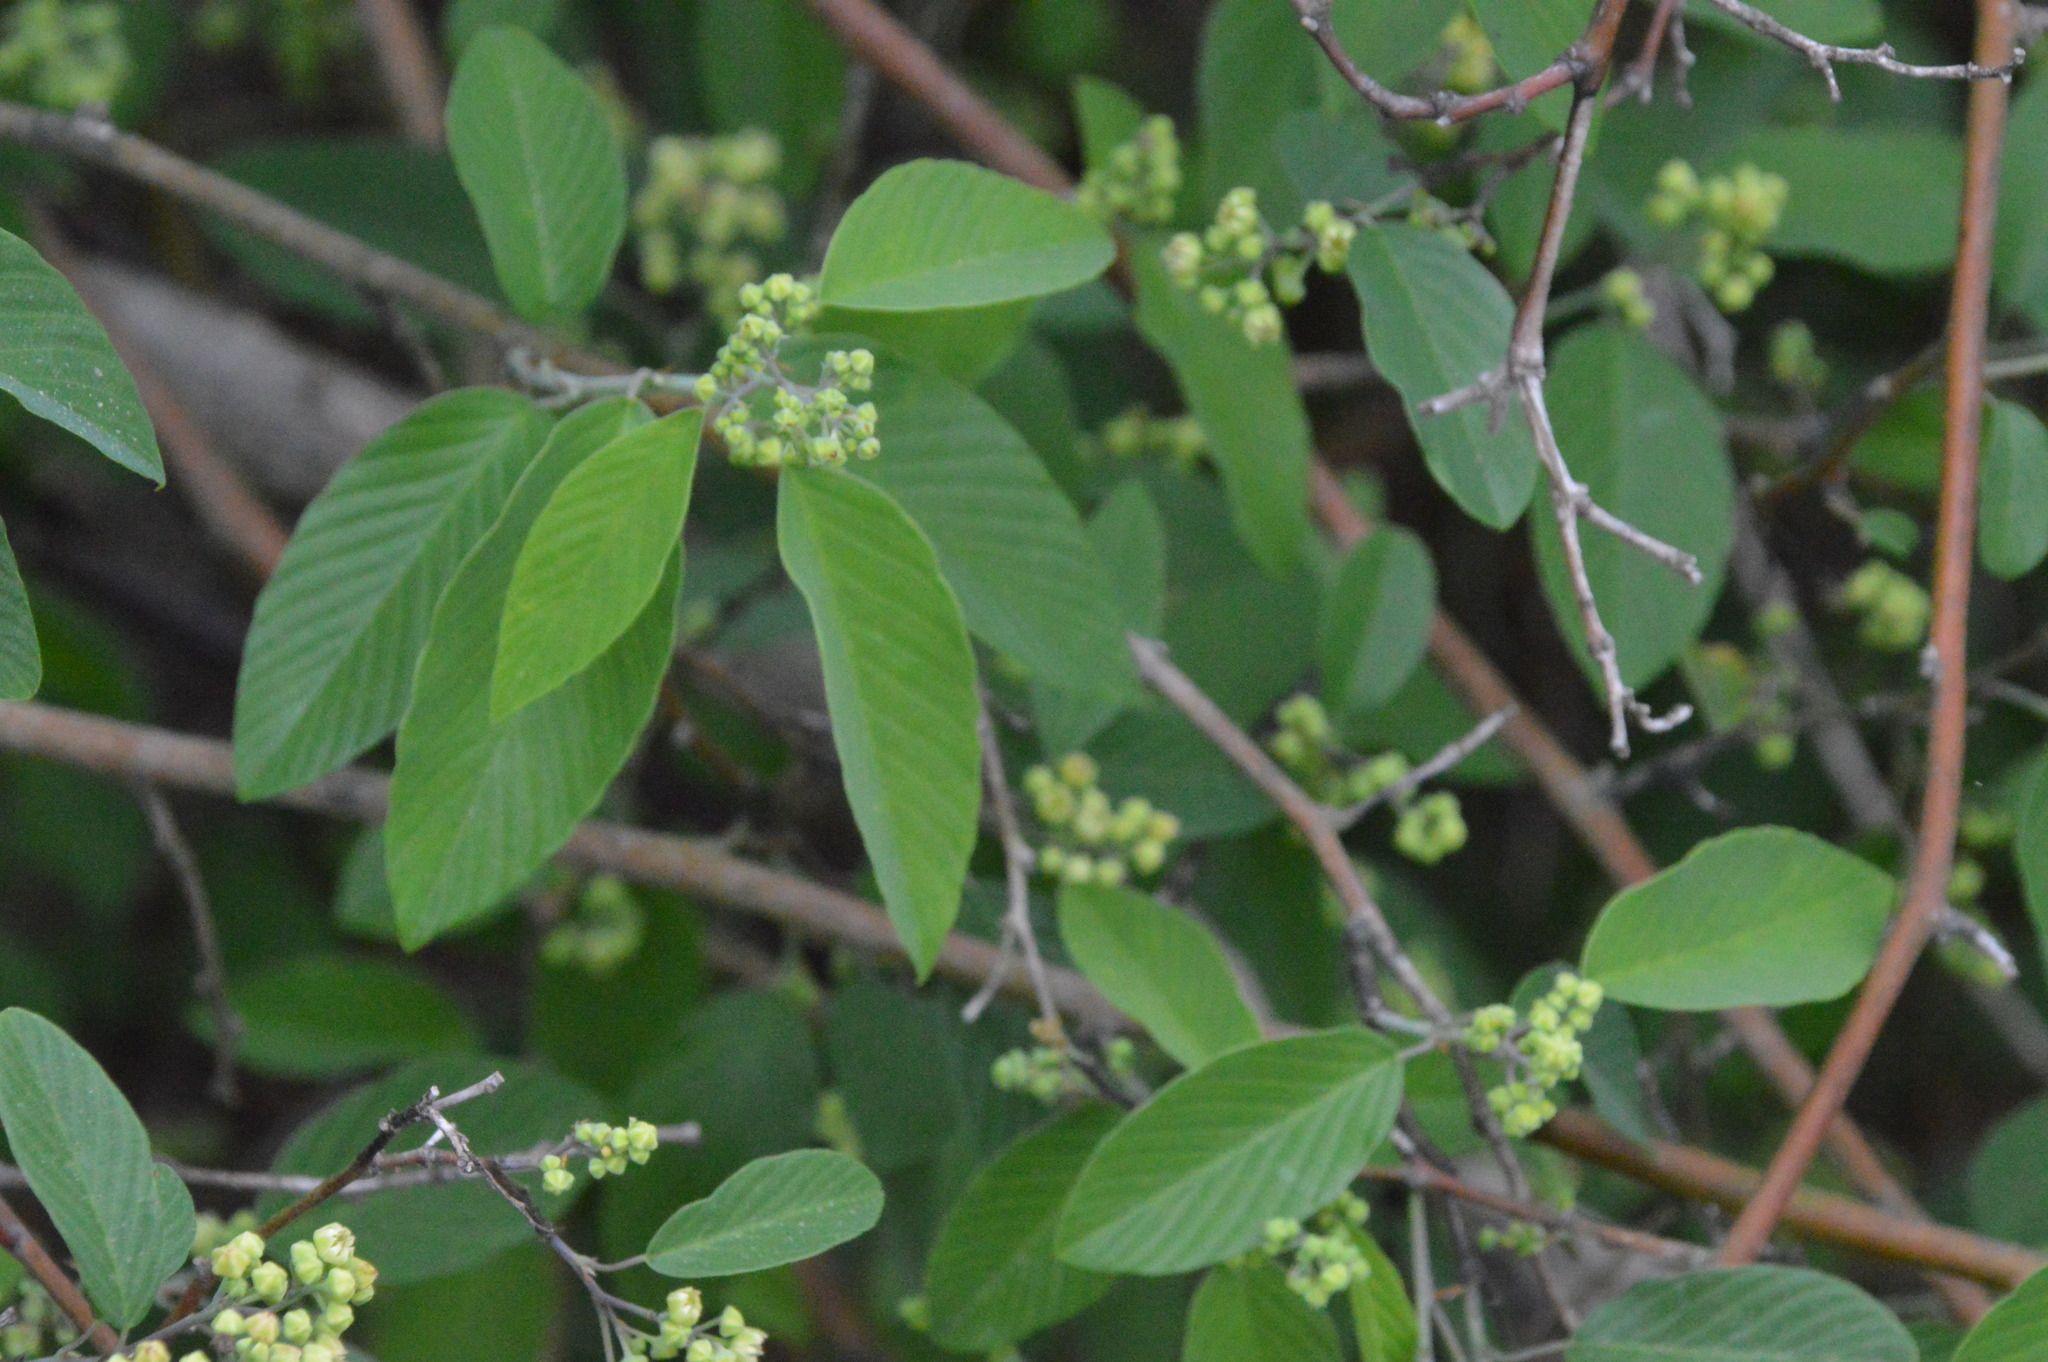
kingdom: Plantae
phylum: Tracheophyta
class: Magnoliopsida
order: Rosales
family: Rhamnaceae
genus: Berchemia
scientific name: Berchemia scandens
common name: Supplejack
